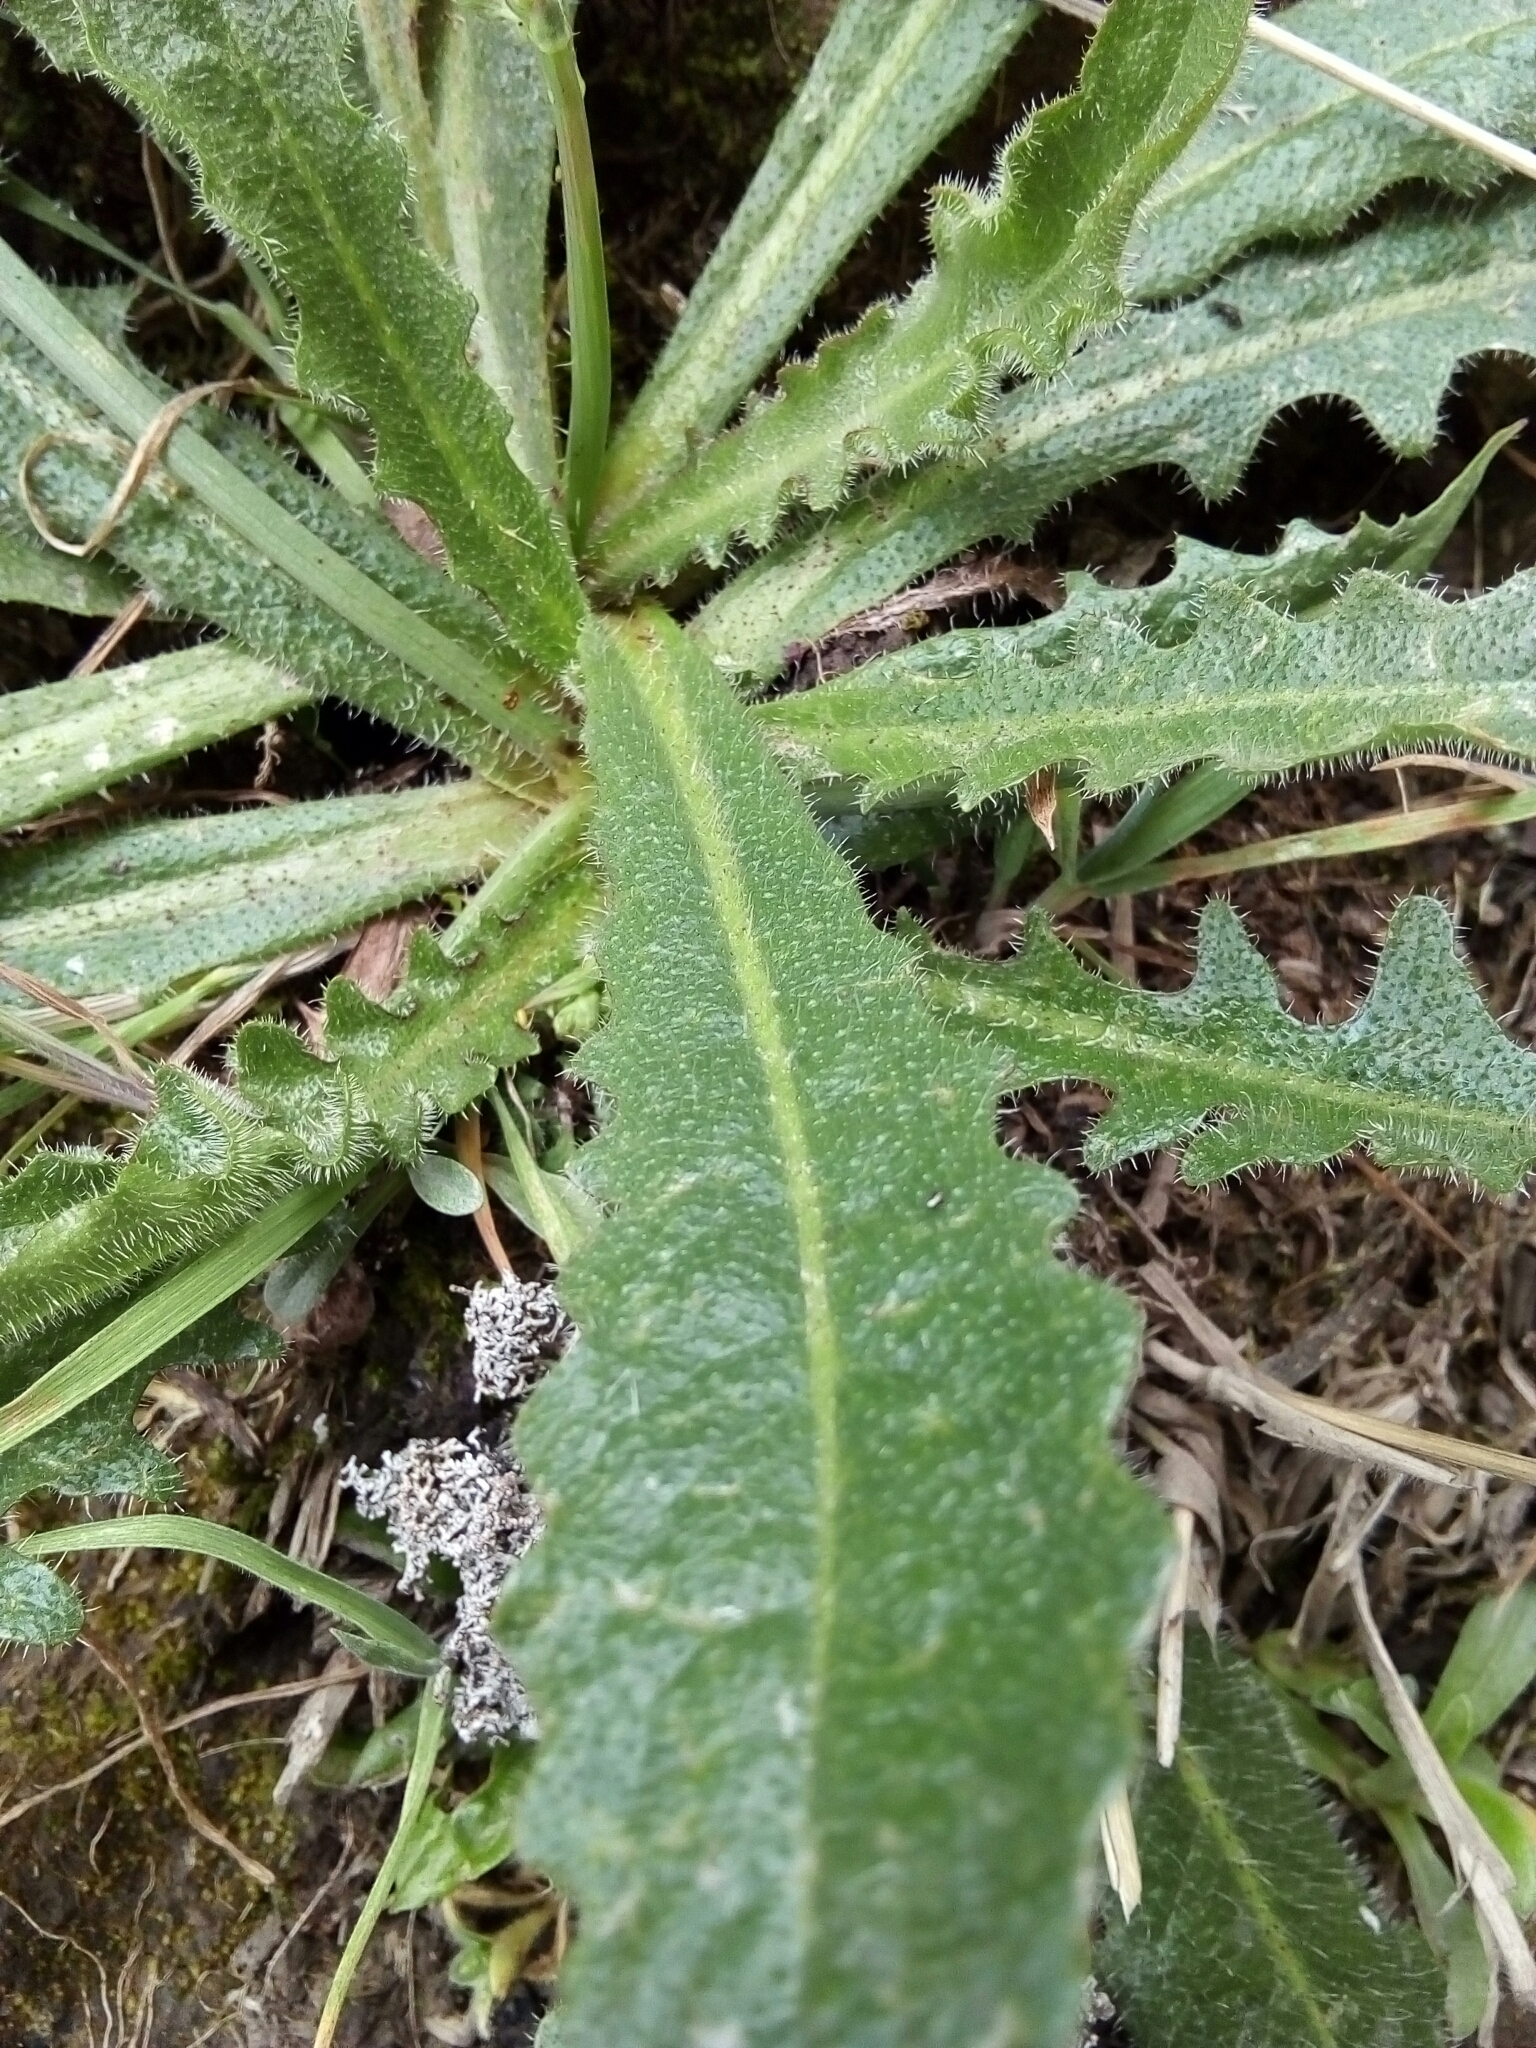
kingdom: Plantae
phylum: Tracheophyta
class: Magnoliopsida
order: Asterales
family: Asteraceae
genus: Hypochaeris
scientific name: Hypochaeris radicata
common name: Flatweed
